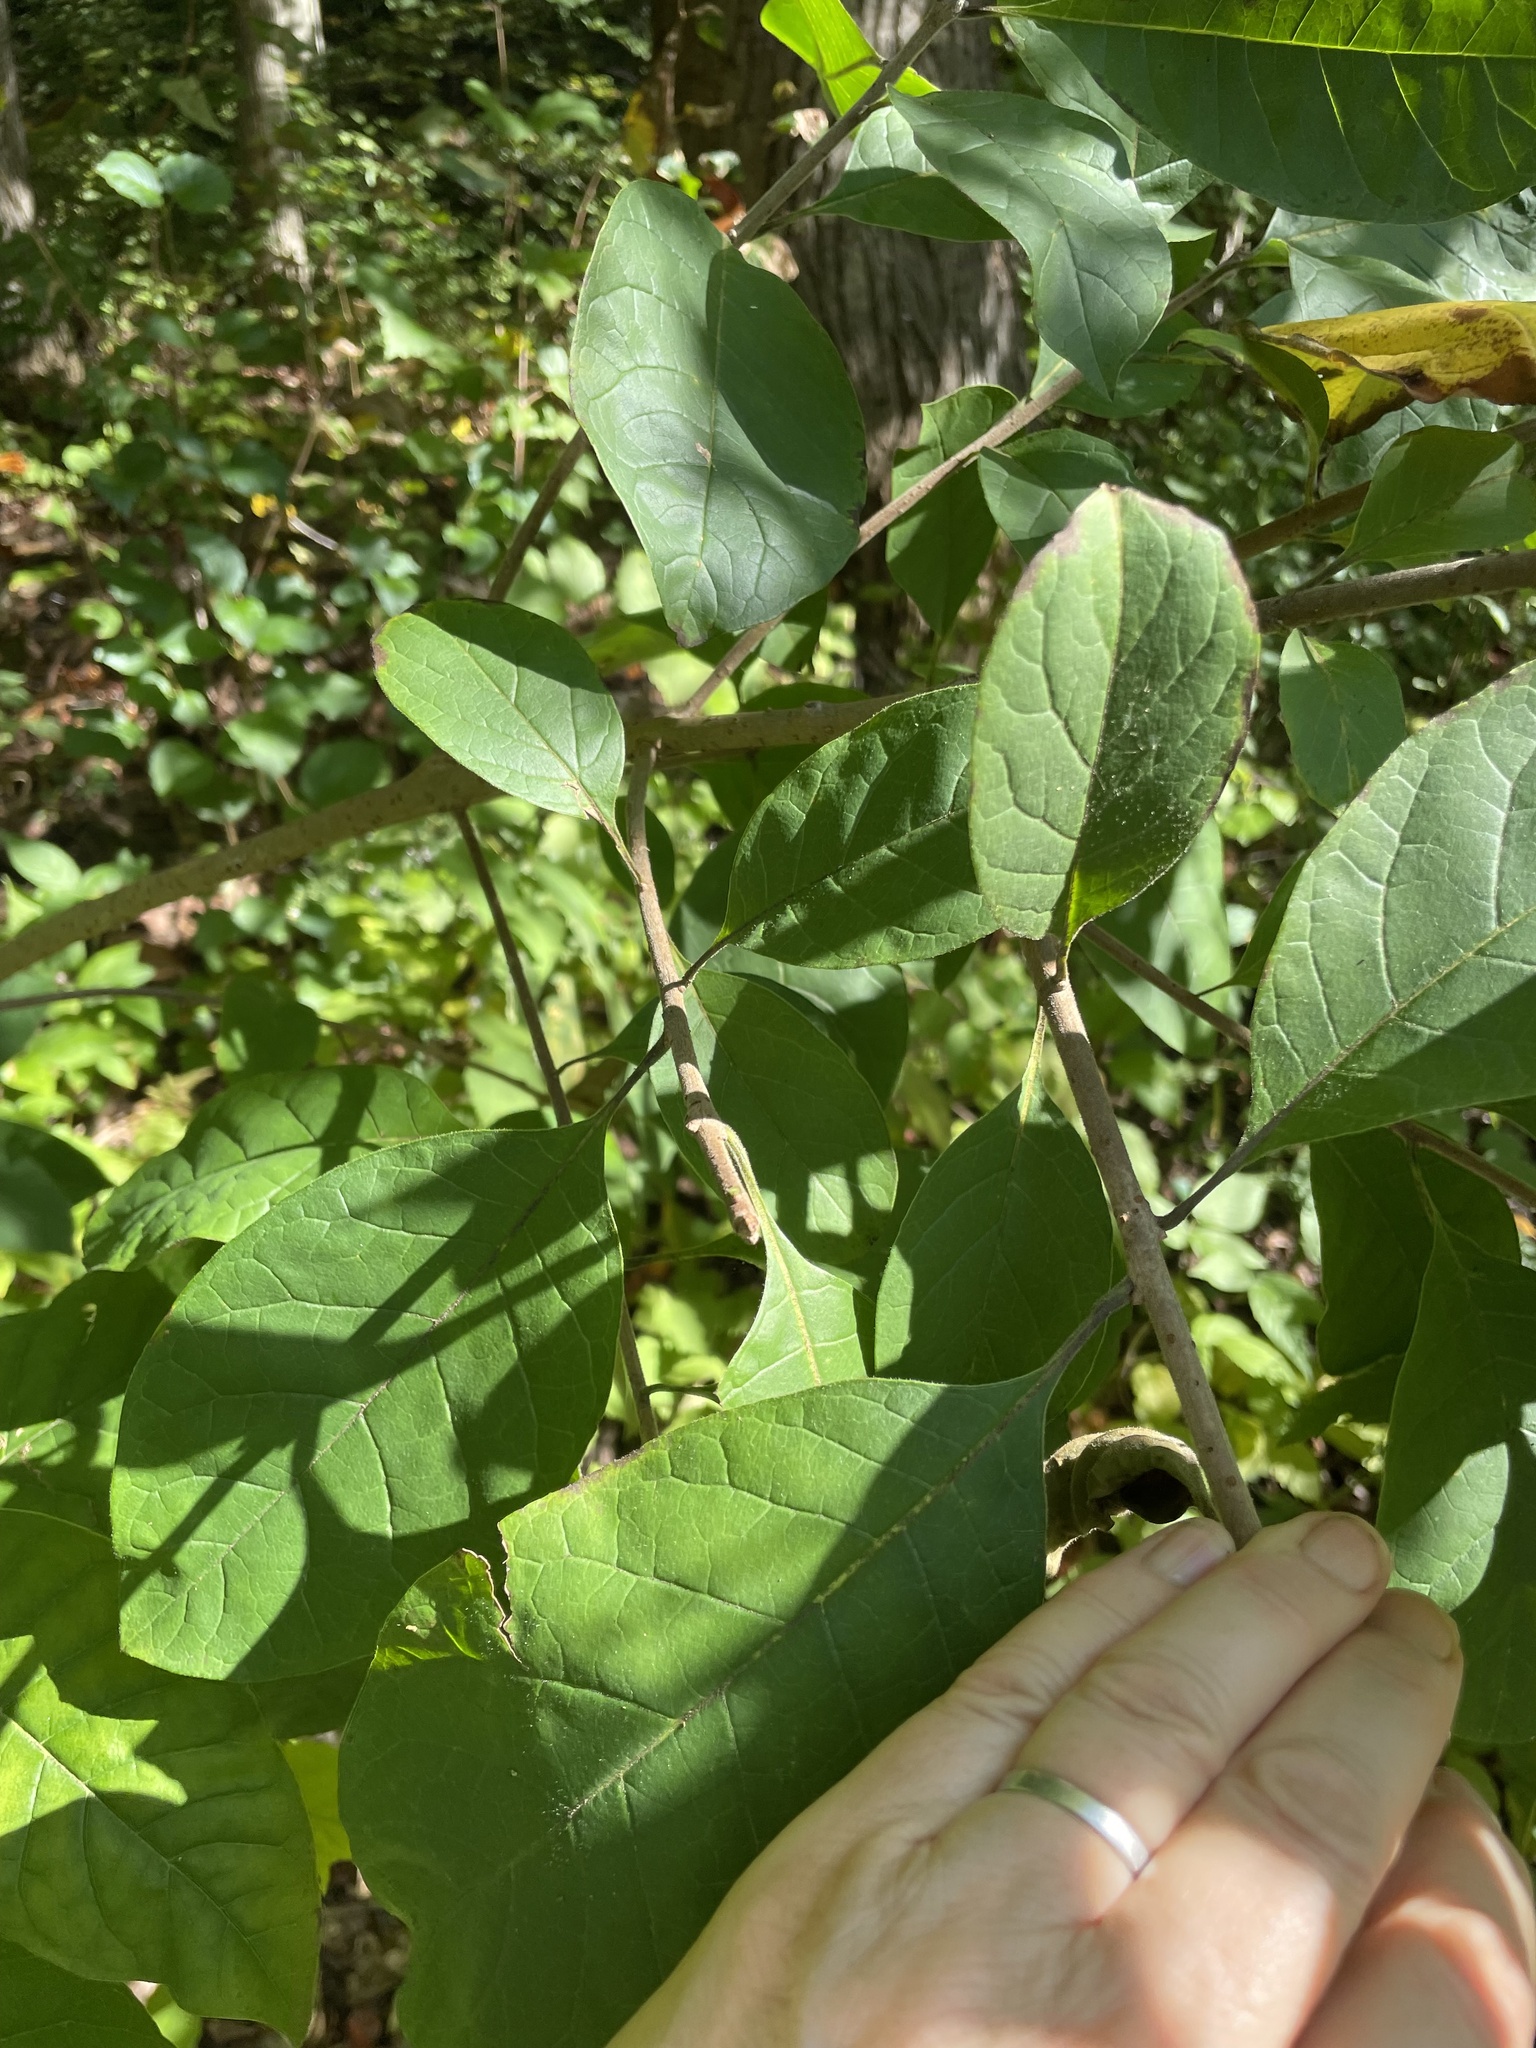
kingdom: Plantae
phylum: Tracheophyta
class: Magnoliopsida
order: Laurales
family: Lauraceae
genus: Lindera
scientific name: Lindera benzoin
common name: Spicebush
